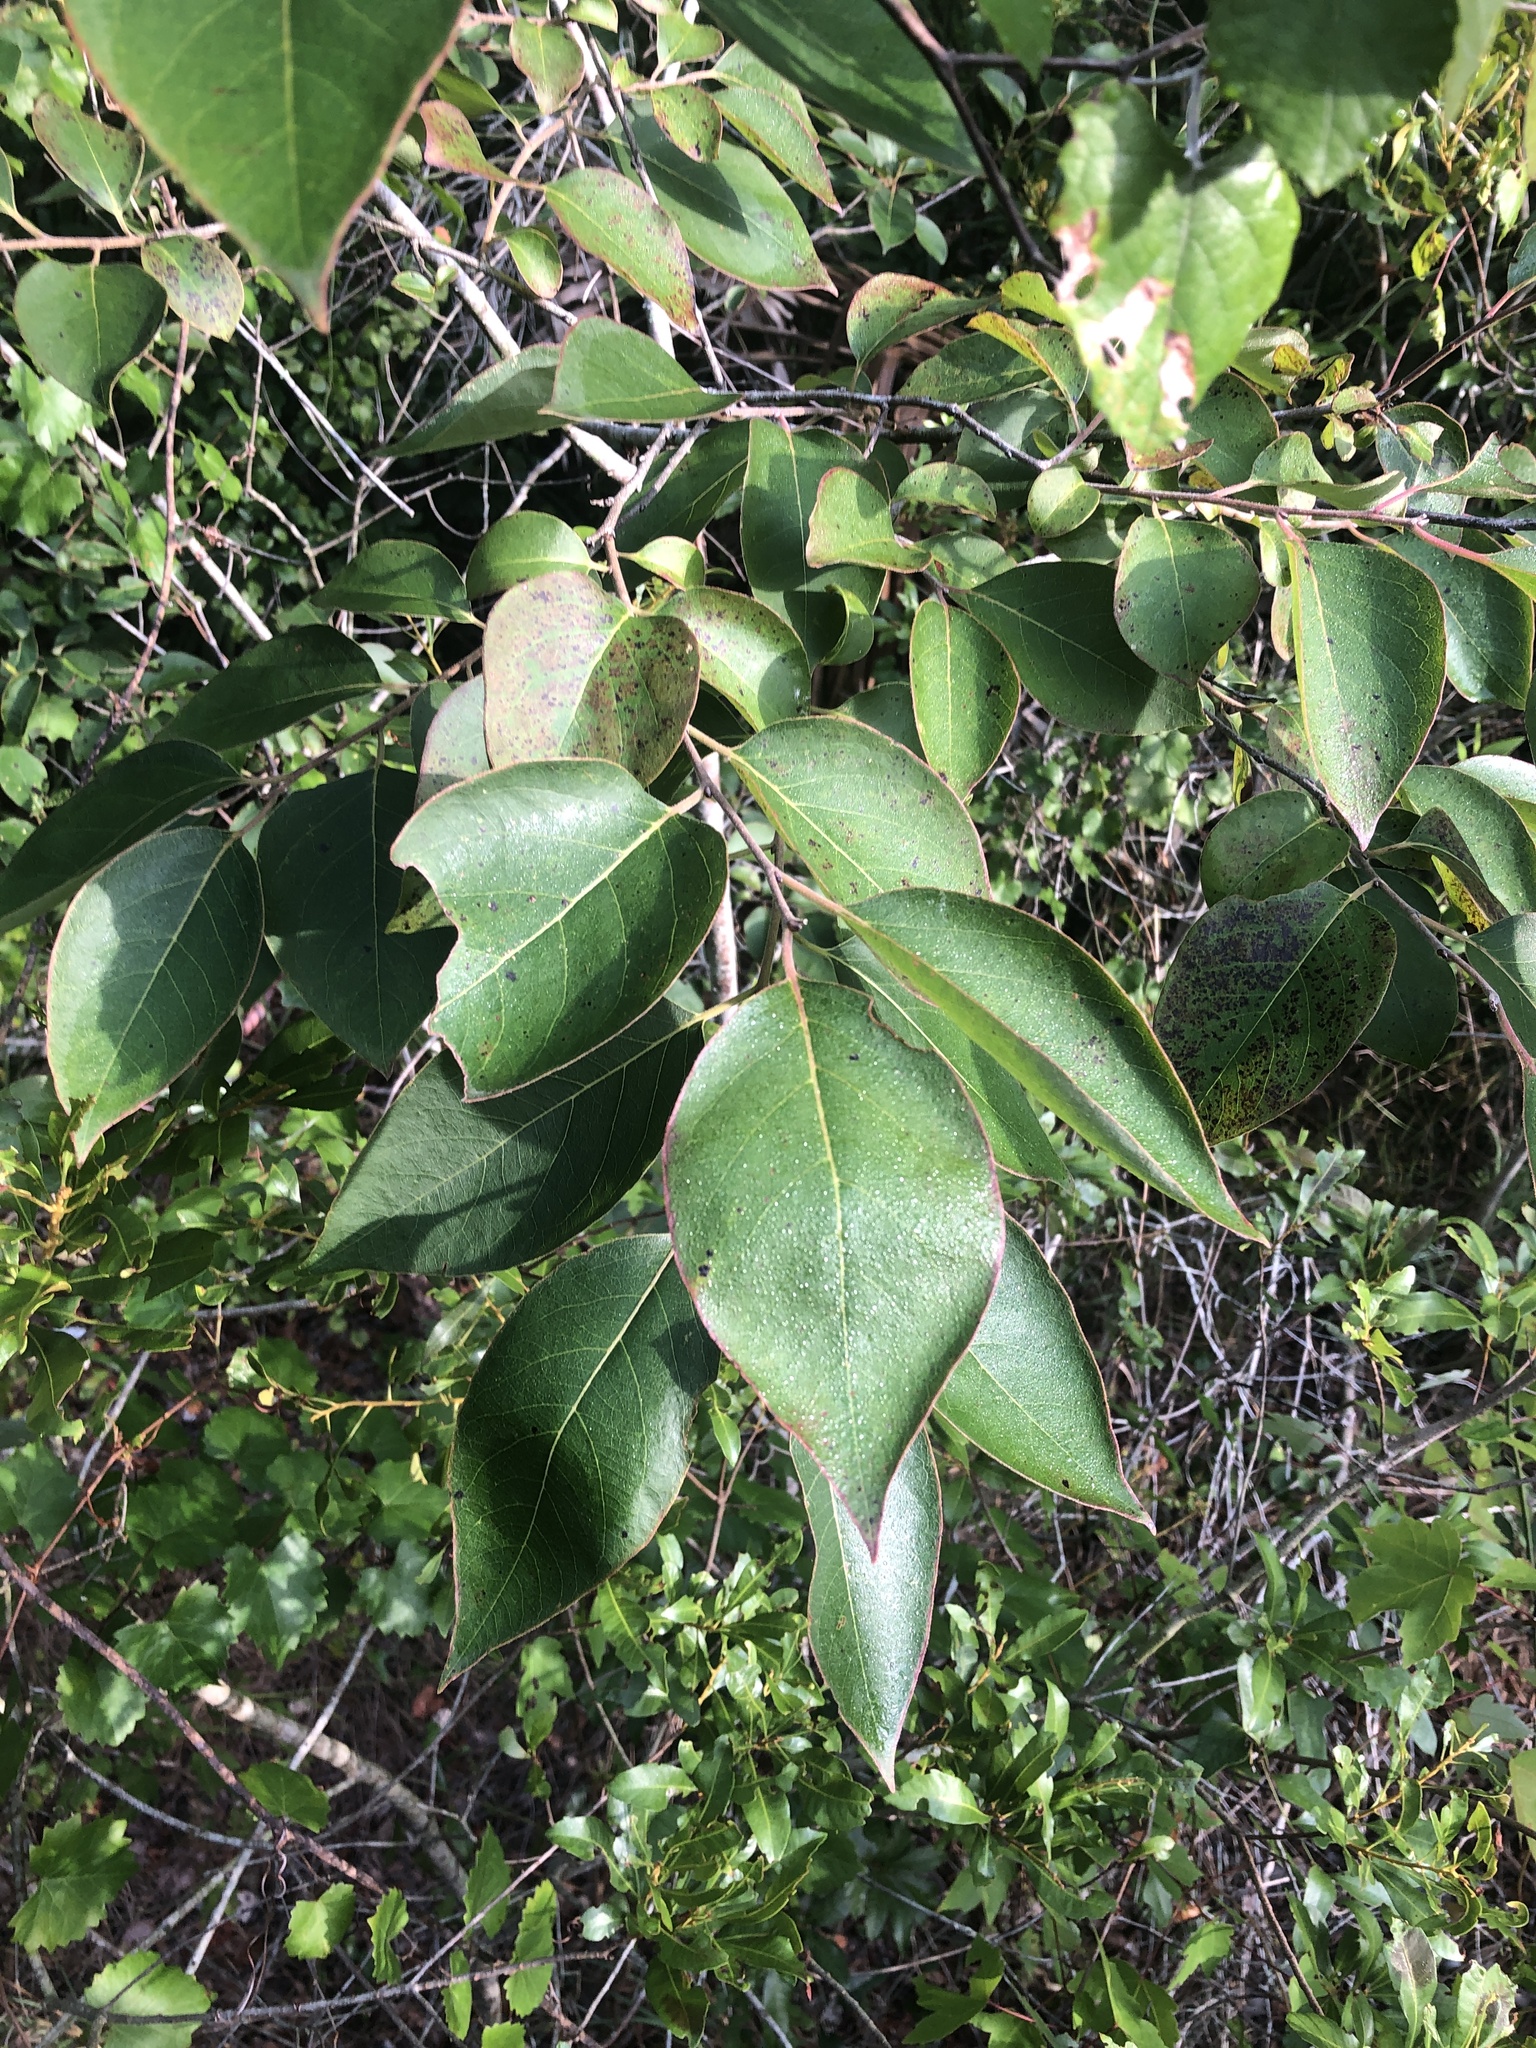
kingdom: Plantae
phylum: Tracheophyta
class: Magnoliopsida
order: Ericales
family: Ebenaceae
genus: Diospyros
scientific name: Diospyros virginiana
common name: Persimmon
